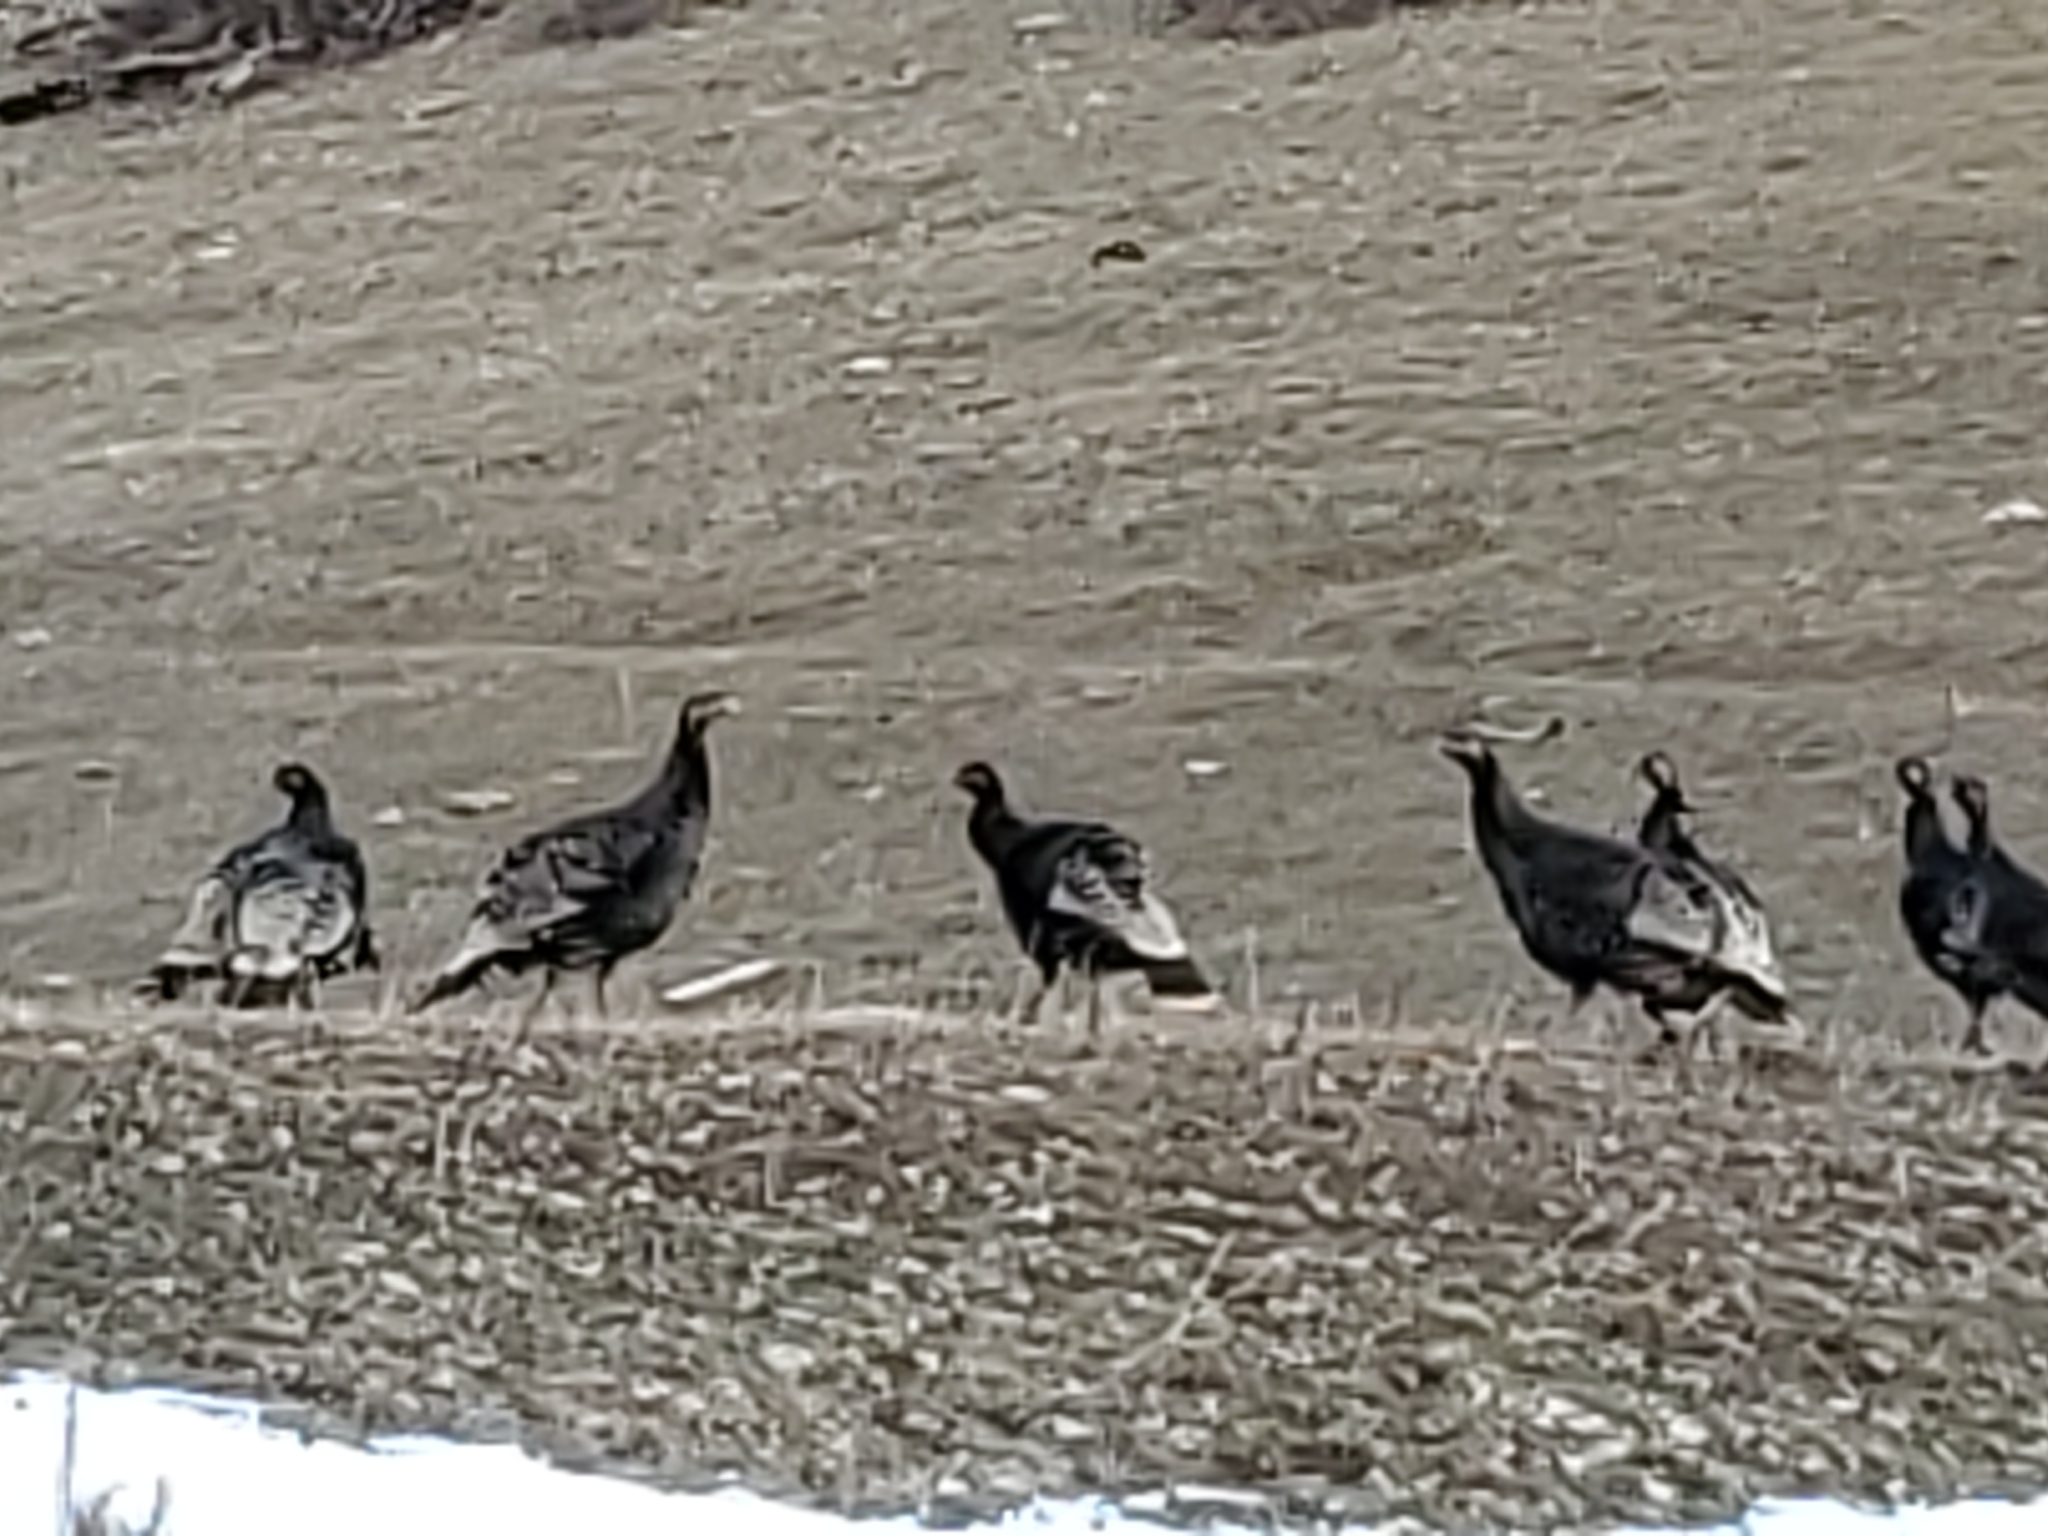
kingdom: Animalia
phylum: Chordata
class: Aves
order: Galliformes
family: Phasianidae
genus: Meleagris
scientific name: Meleagris gallopavo
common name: Wild turkey
